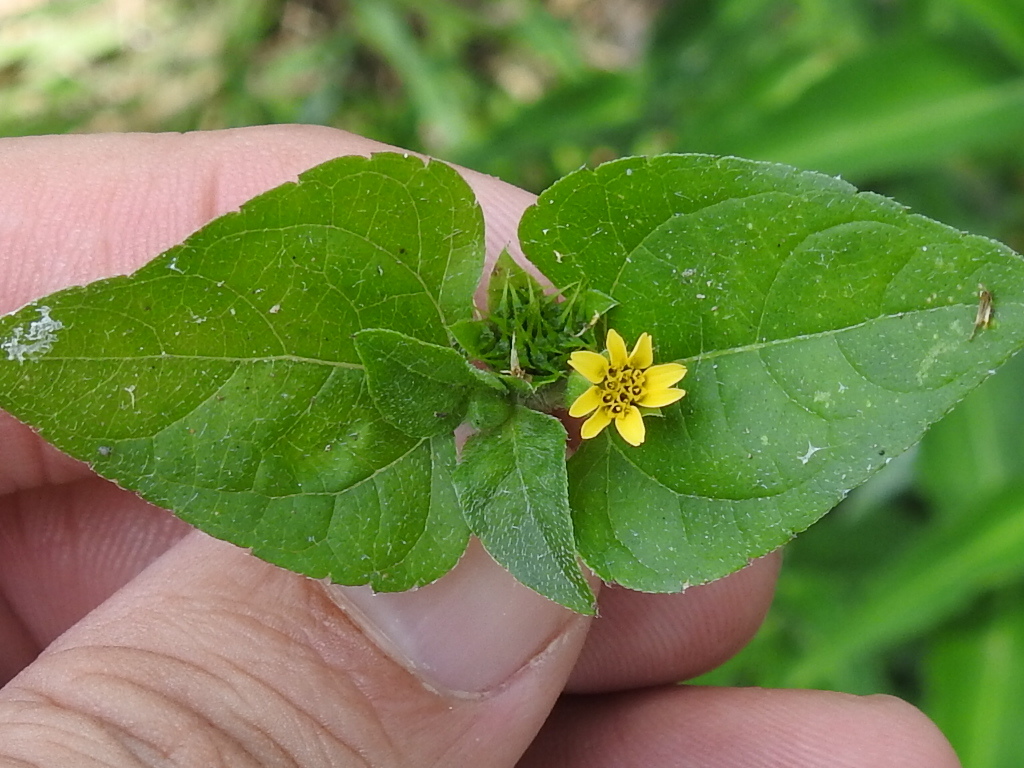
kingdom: Plantae
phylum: Tracheophyta
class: Magnoliopsida
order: Asterales
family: Asteraceae
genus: Calyptocarpus
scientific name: Calyptocarpus vialis
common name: Straggler daisy
